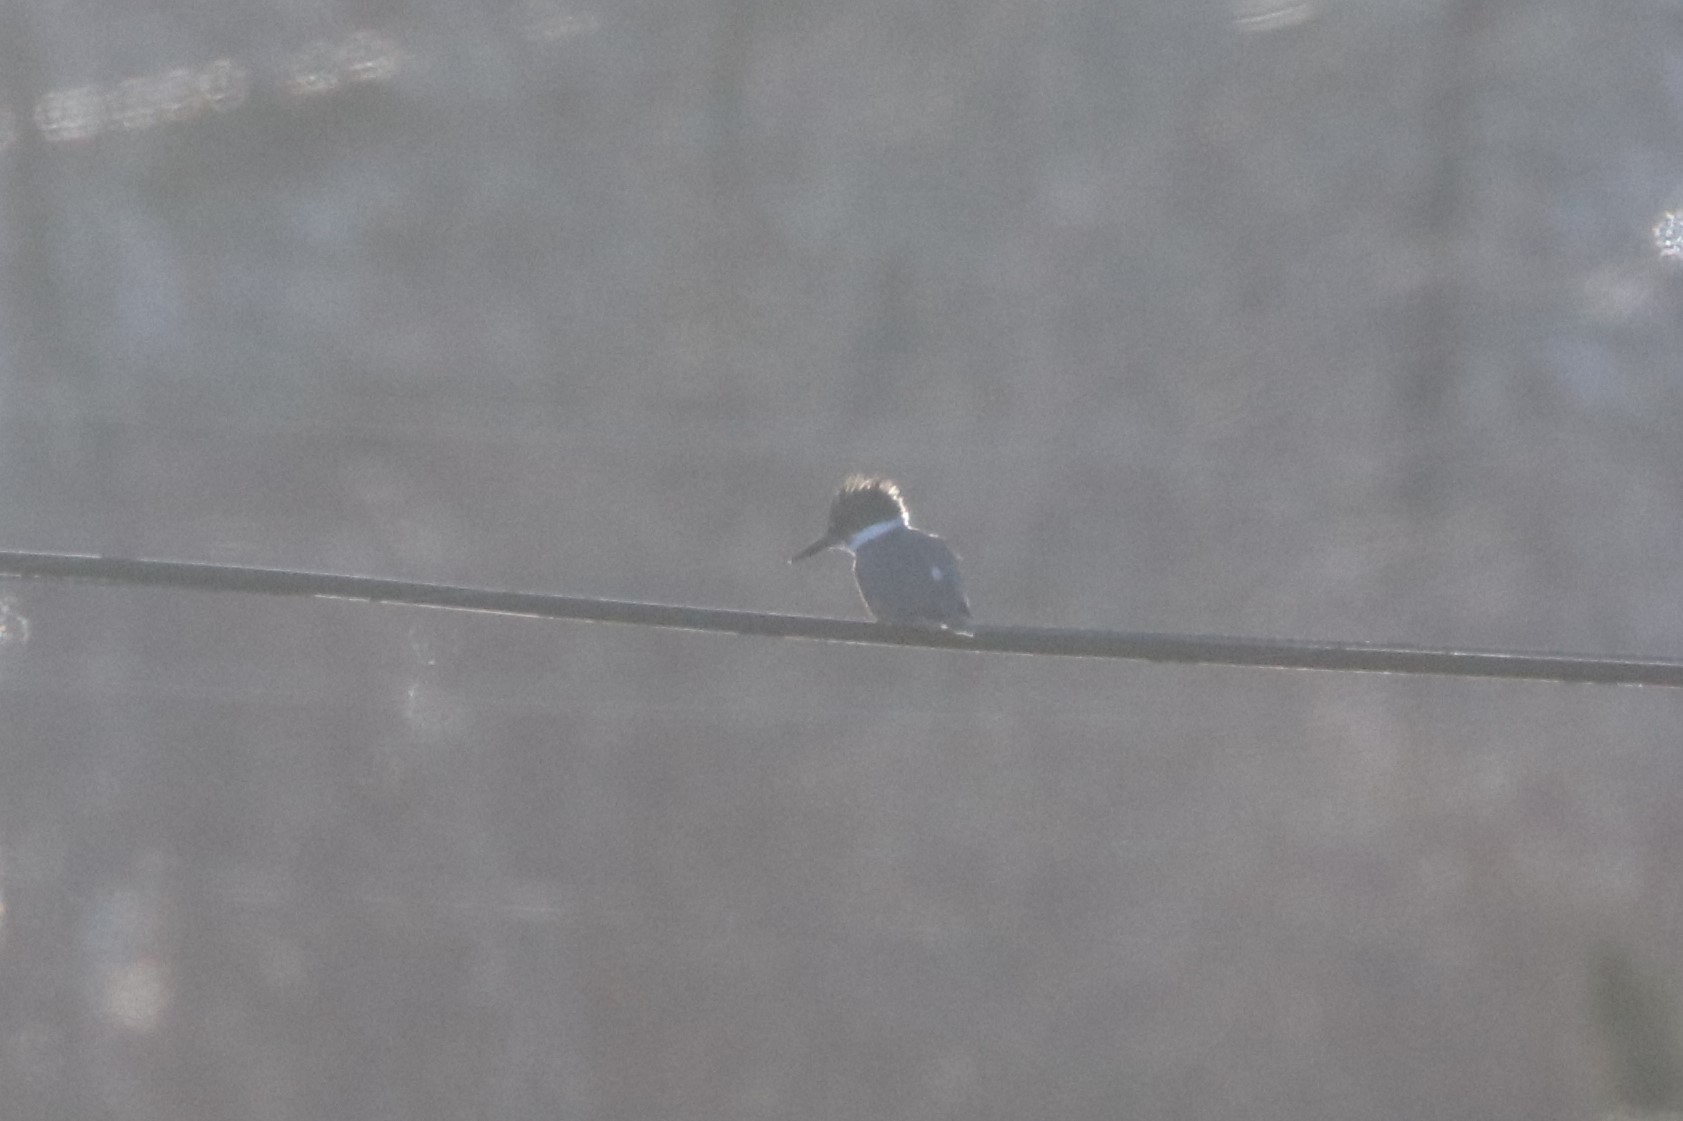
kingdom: Animalia
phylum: Chordata
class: Aves
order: Coraciiformes
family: Alcedinidae
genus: Megaceryle
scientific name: Megaceryle alcyon
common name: Belted kingfisher
